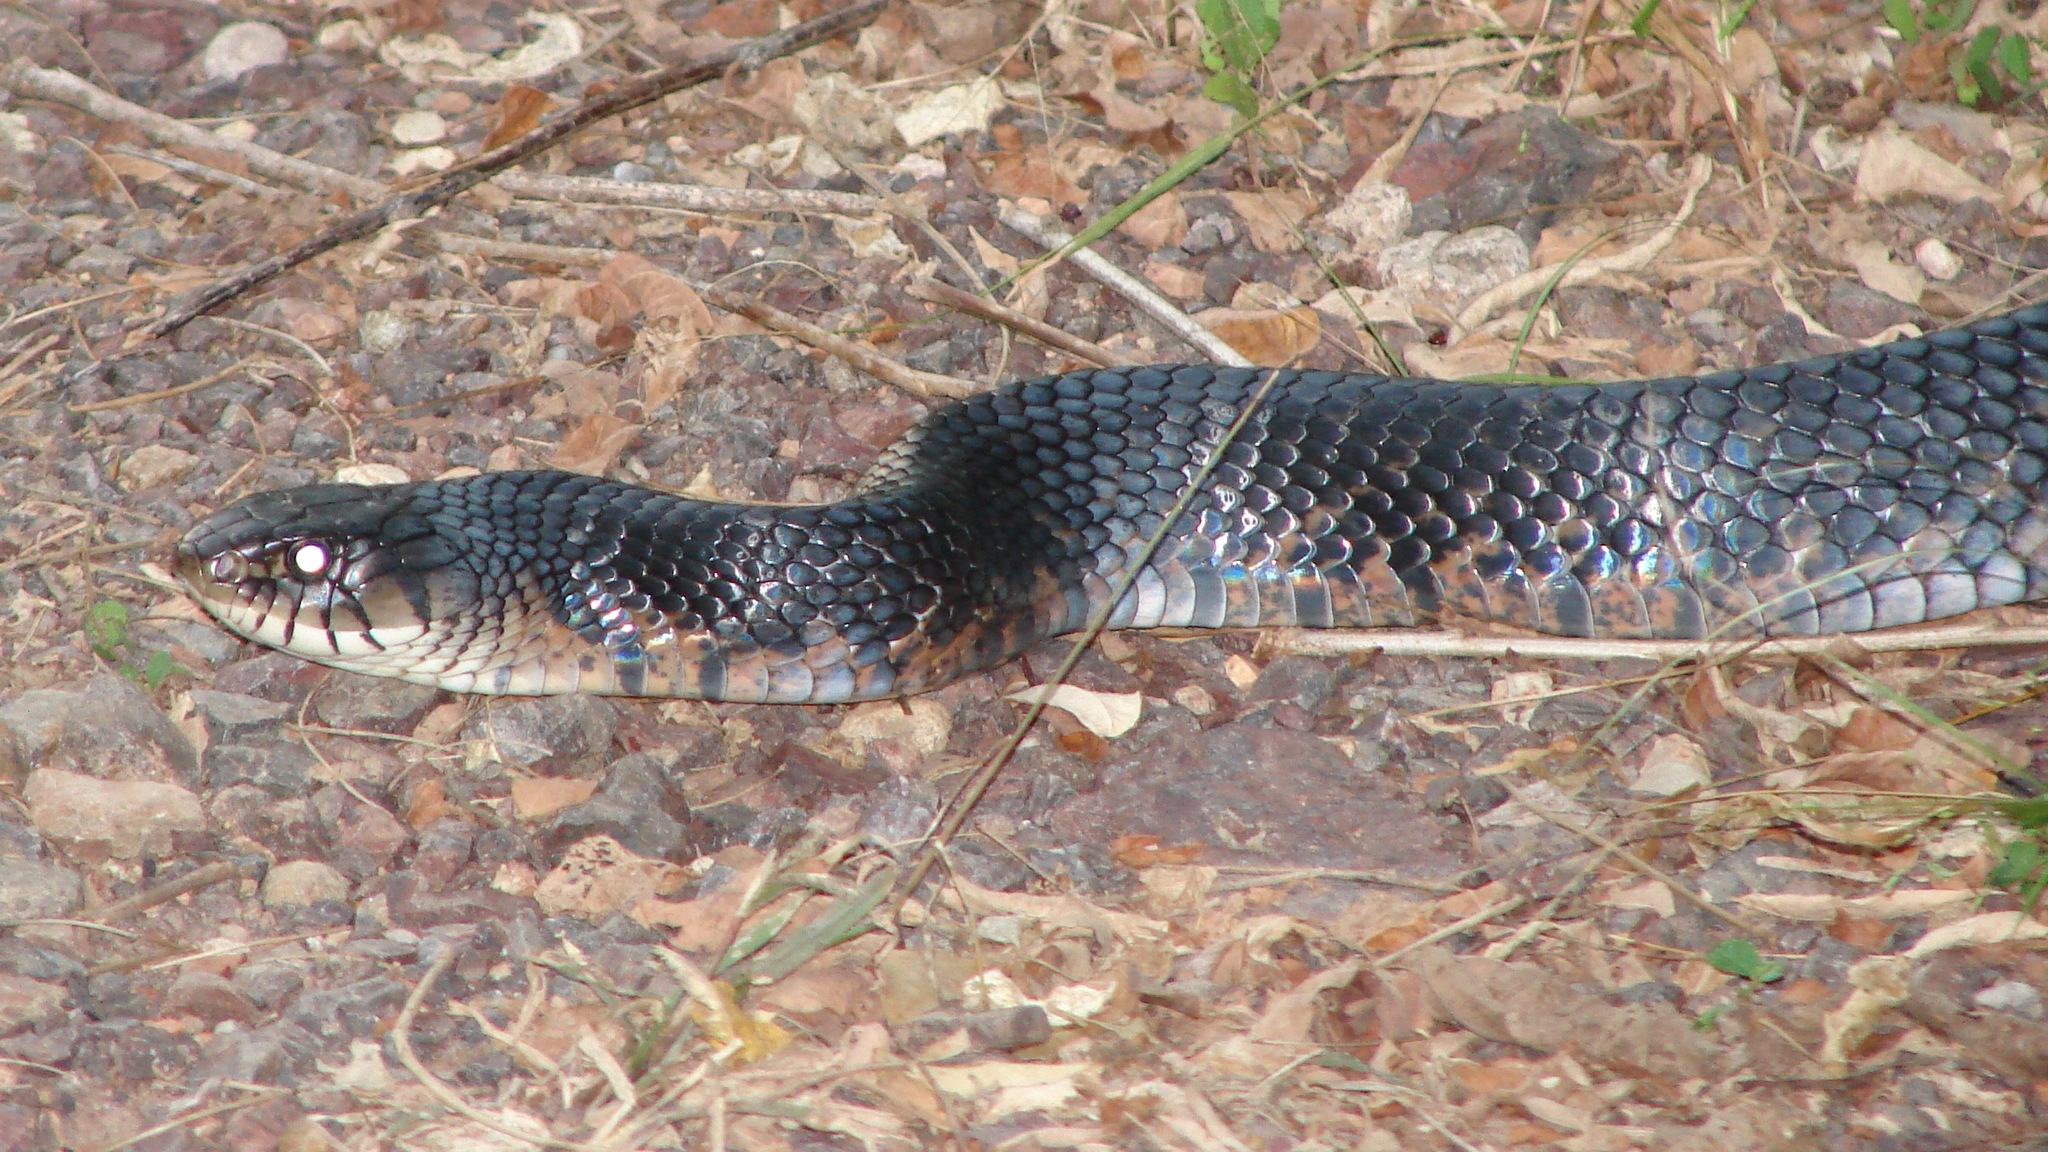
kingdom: Animalia
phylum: Chordata
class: Squamata
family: Colubridae
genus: Drymarchon
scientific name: Drymarchon melanurus
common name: Central american indigo snake
